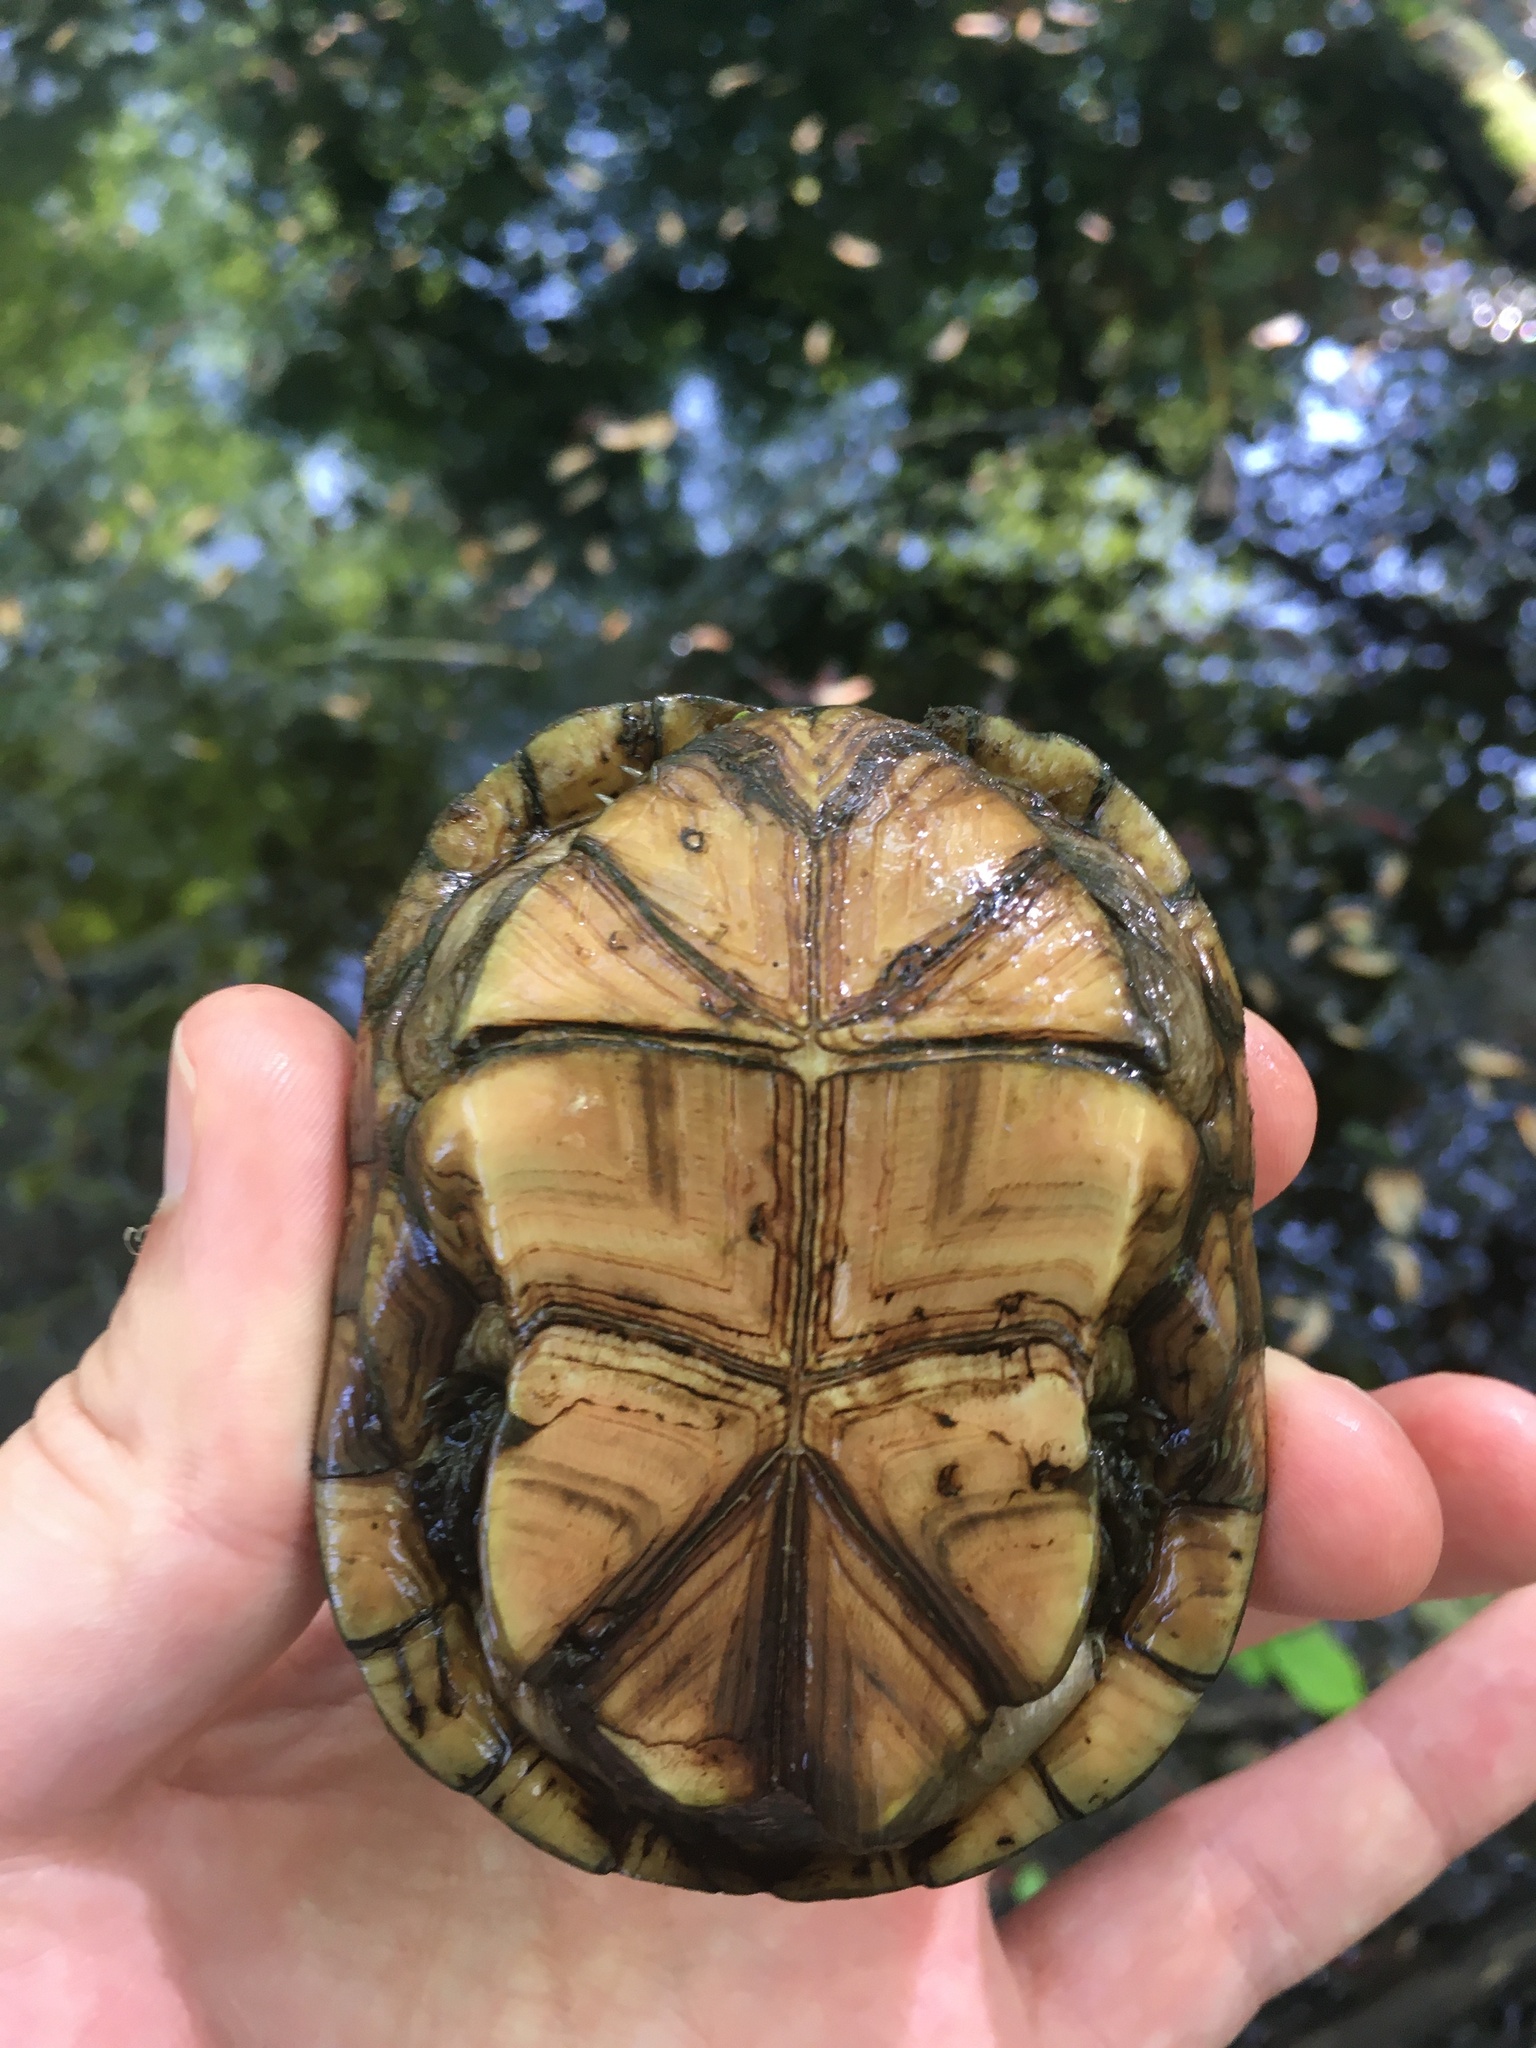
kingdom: Animalia
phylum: Chordata
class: Testudines
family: Kinosternidae
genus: Kinosternon
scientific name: Kinosternon subrubrum
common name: Eastern mud turtle
